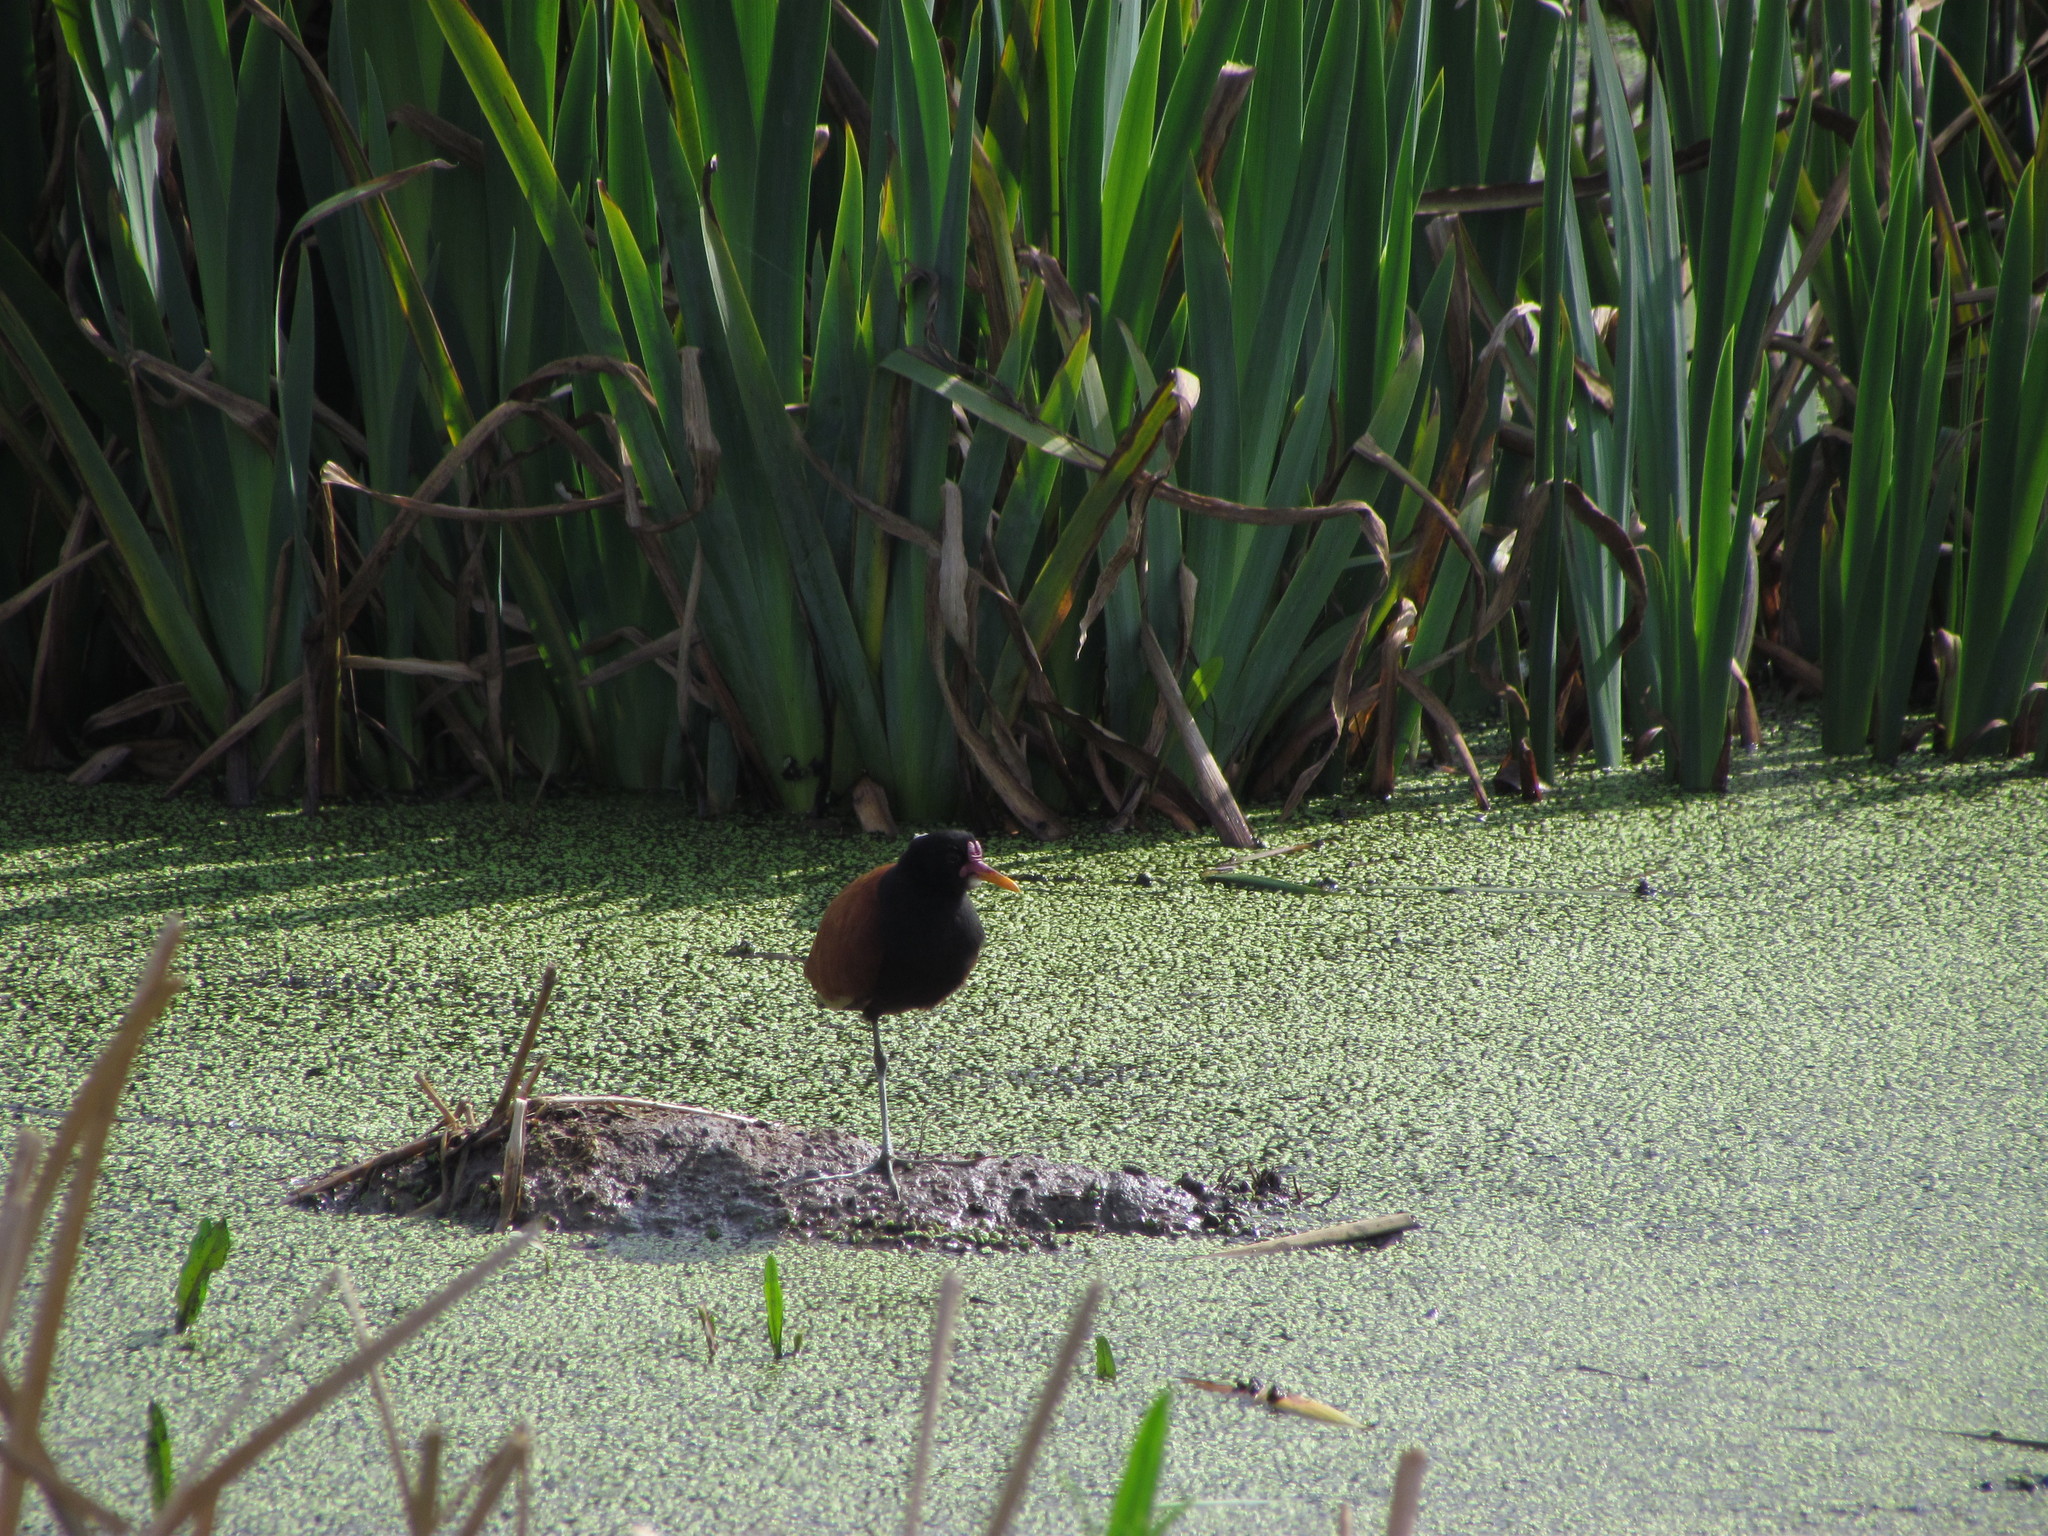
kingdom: Animalia
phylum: Chordata
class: Aves
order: Charadriiformes
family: Jacanidae
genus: Jacana
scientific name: Jacana jacana
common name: Wattled jacana
